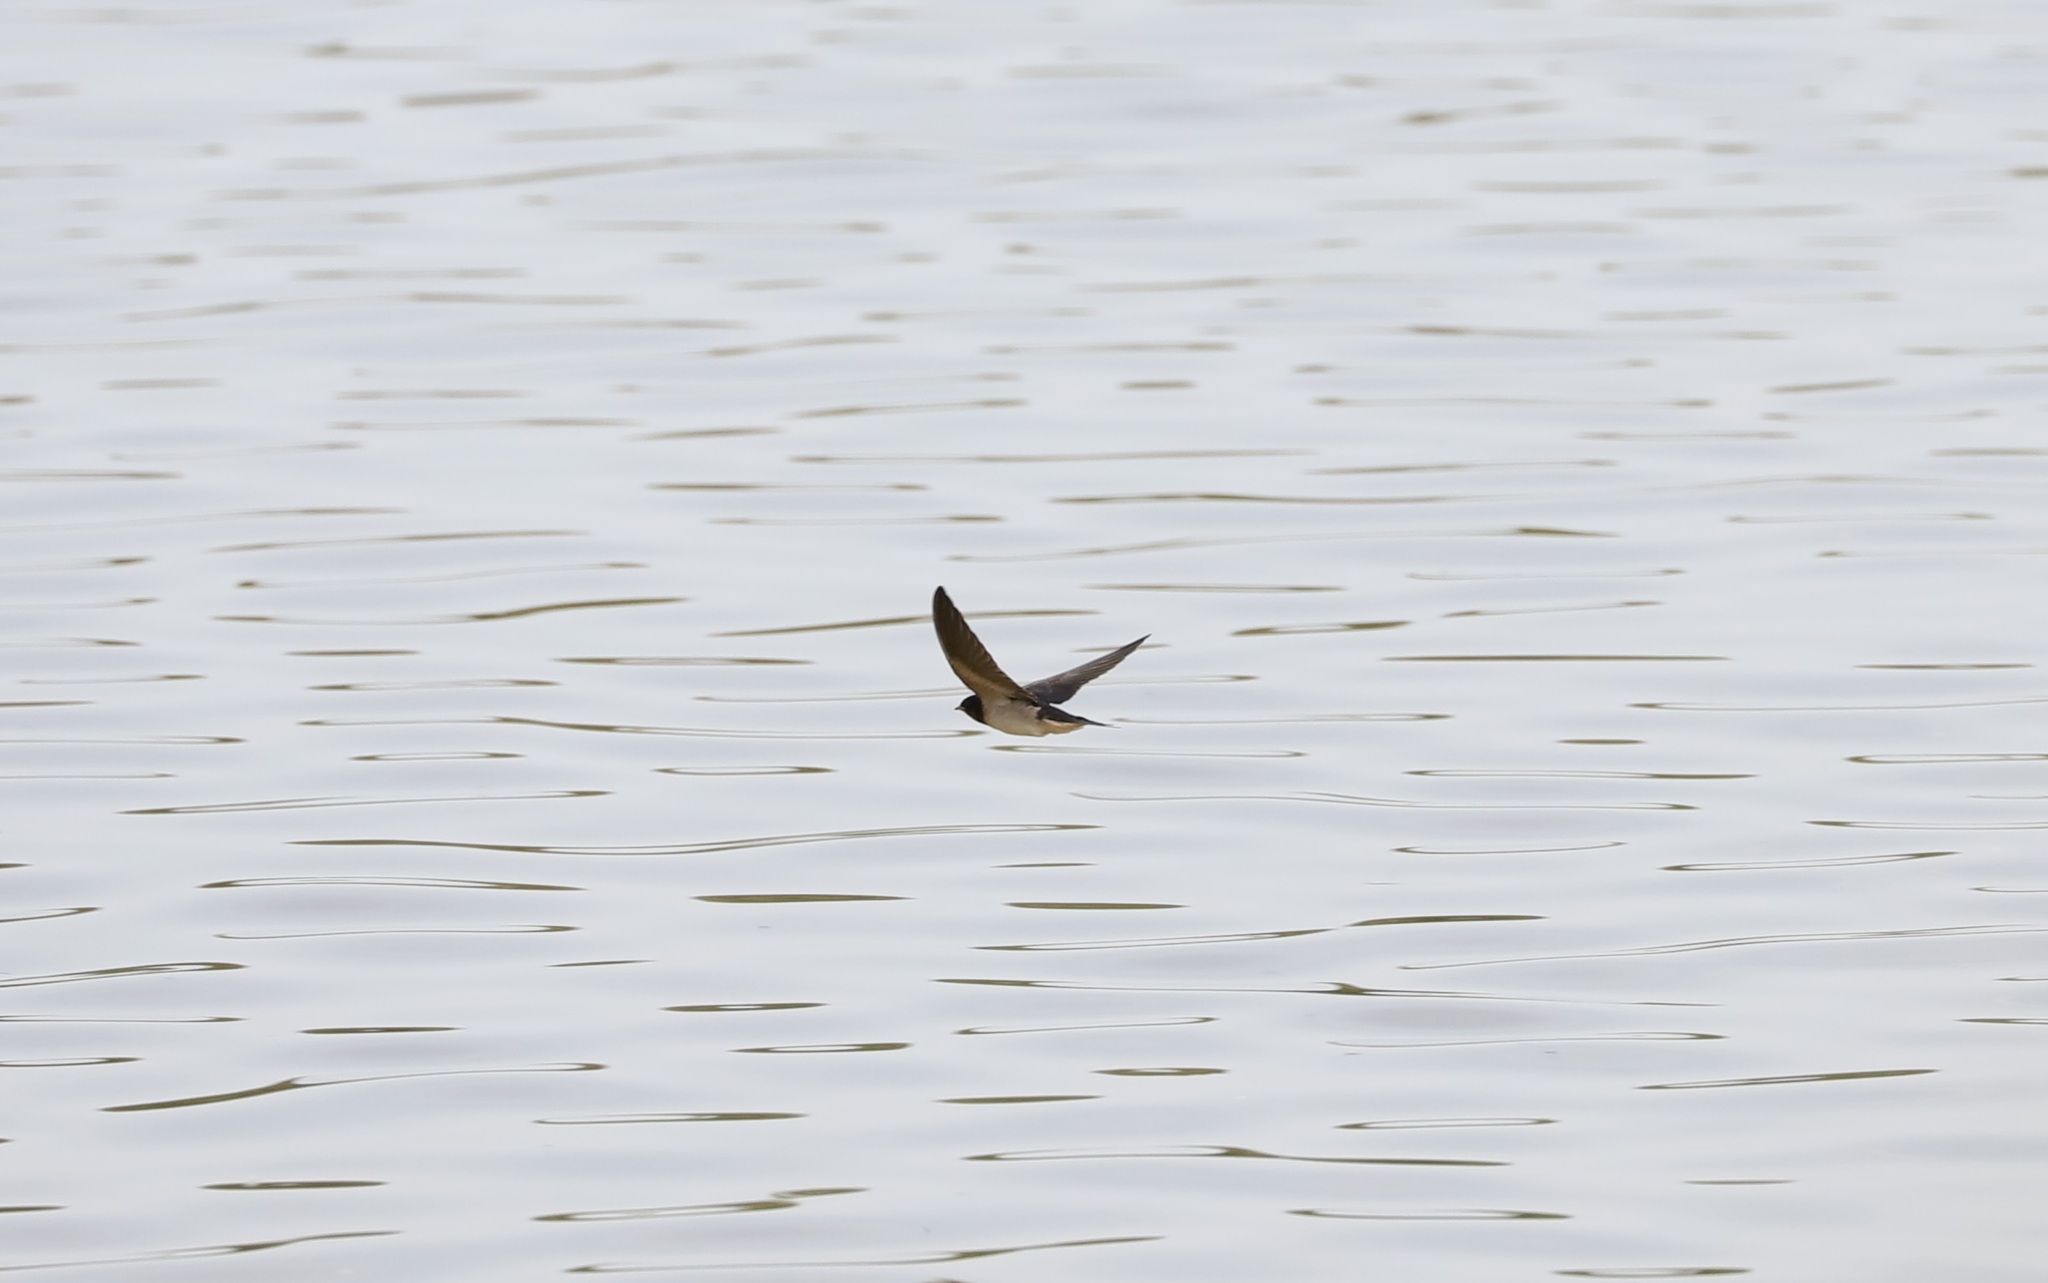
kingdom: Animalia
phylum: Chordata
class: Aves
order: Passeriformes
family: Hirundinidae
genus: Hirundo
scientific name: Hirundo rustica
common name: Barn swallow
